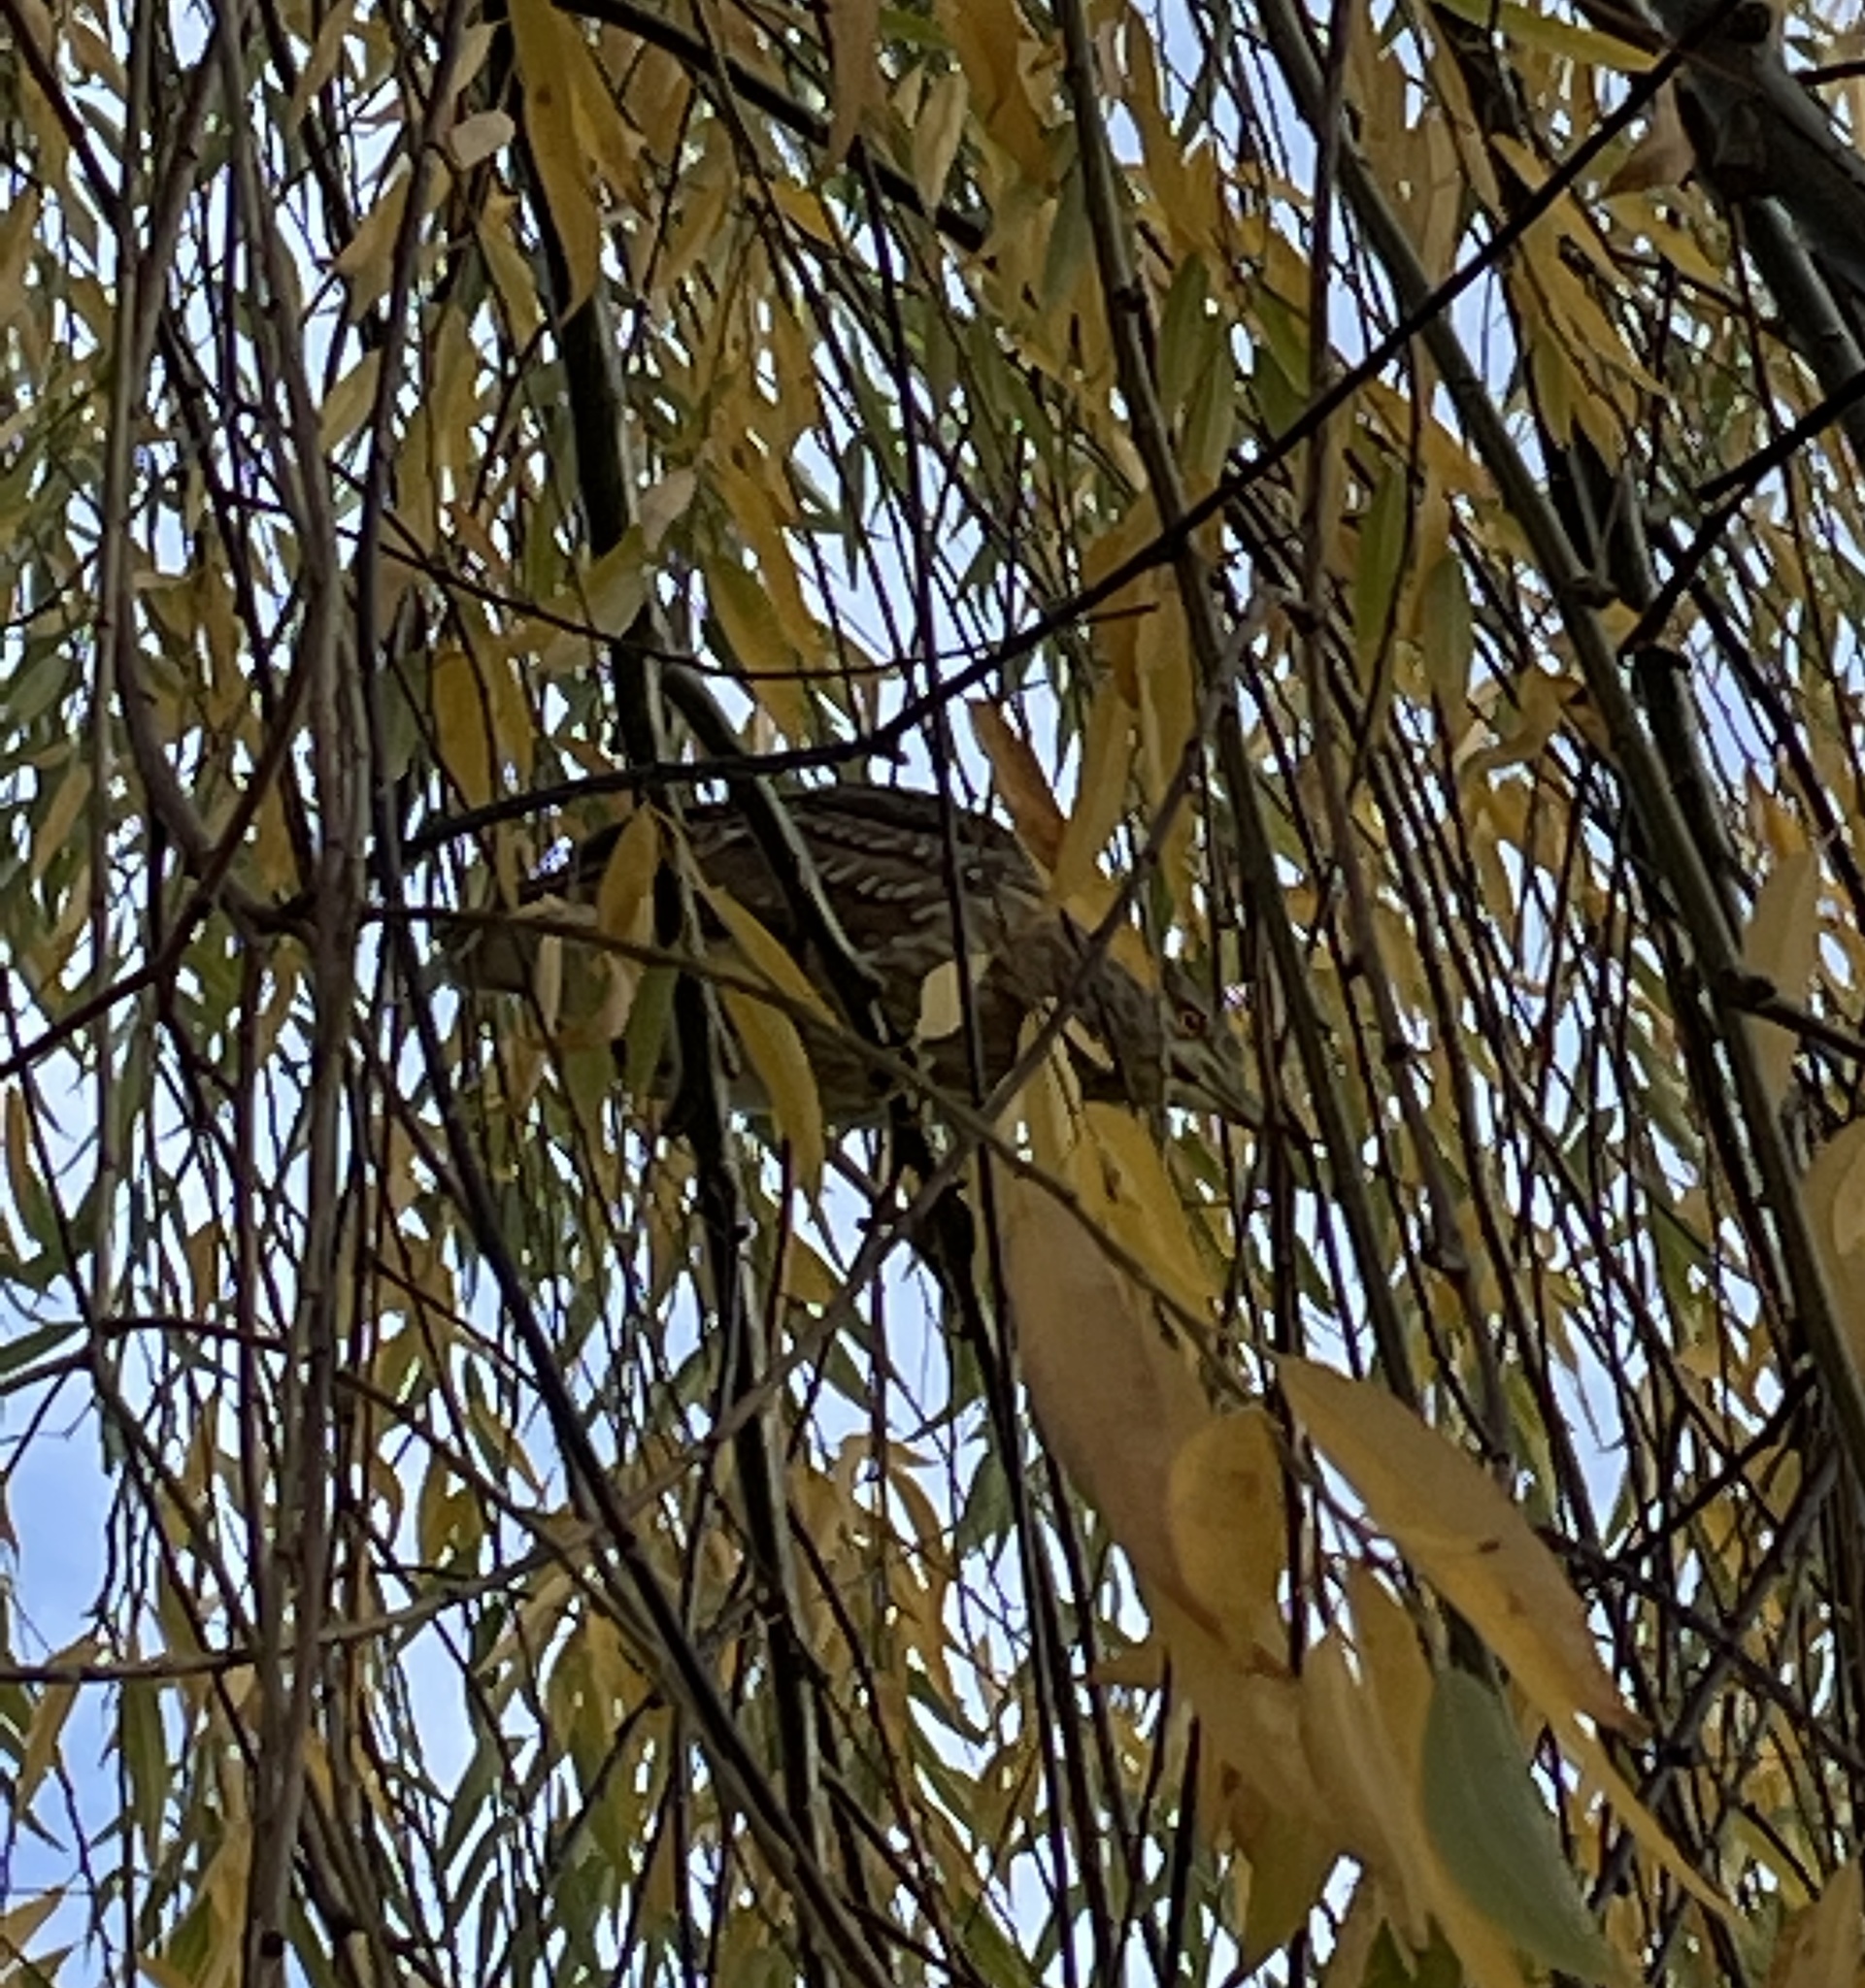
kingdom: Animalia
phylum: Chordata
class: Aves
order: Pelecaniformes
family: Ardeidae
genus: Nycticorax
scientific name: Nycticorax nycticorax
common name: Black-crowned night heron
